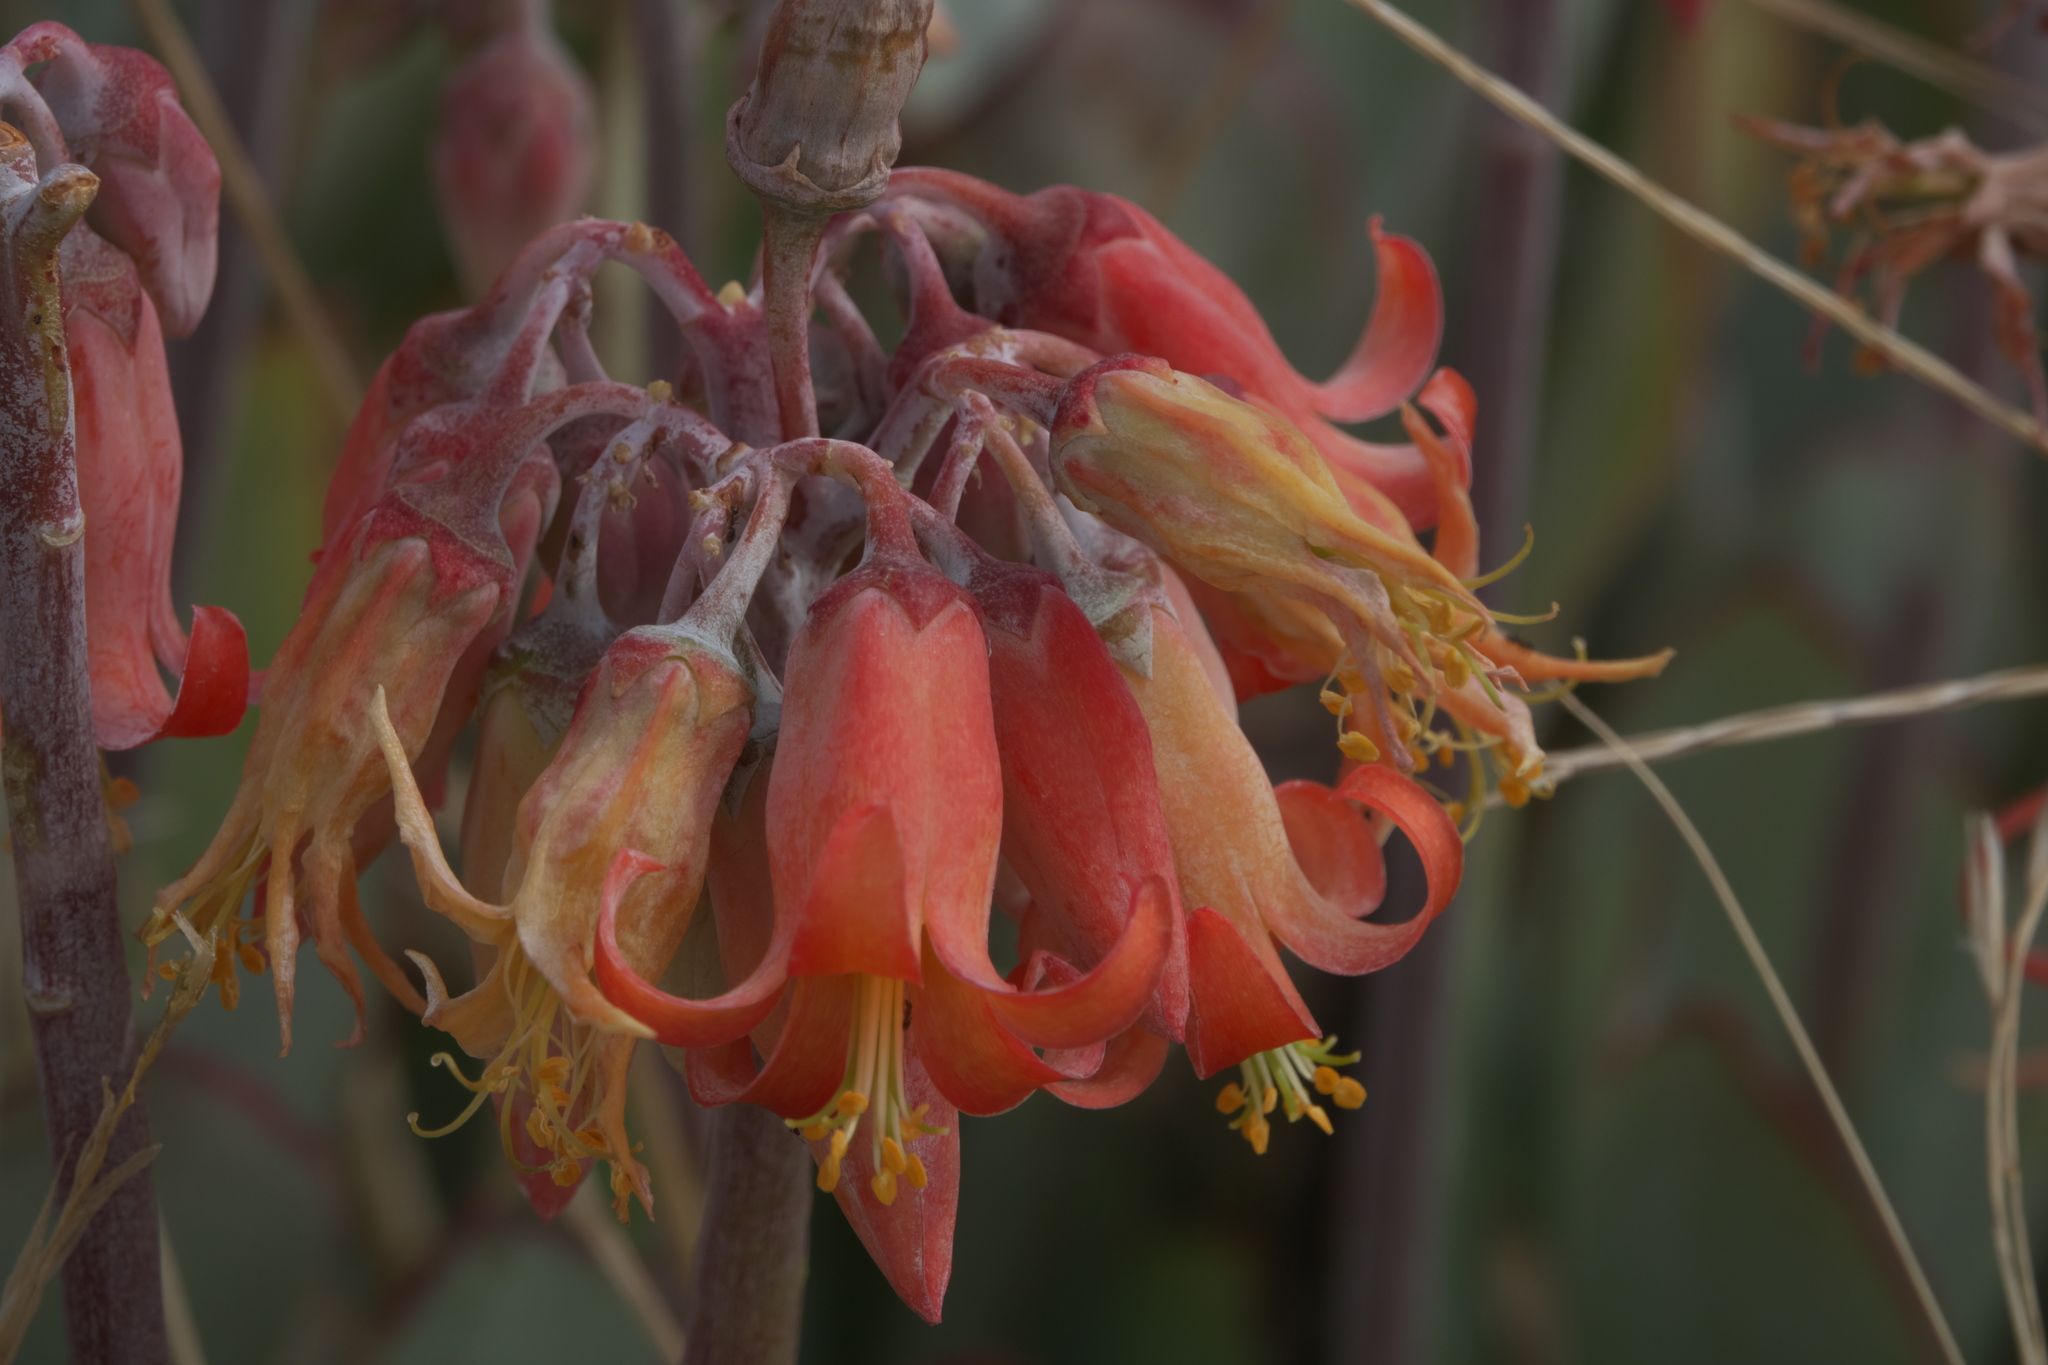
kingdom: Plantae
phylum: Tracheophyta
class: Magnoliopsida
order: Saxifragales
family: Crassulaceae
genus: Cotyledon
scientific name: Cotyledon orbiculata
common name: Pig's ear
